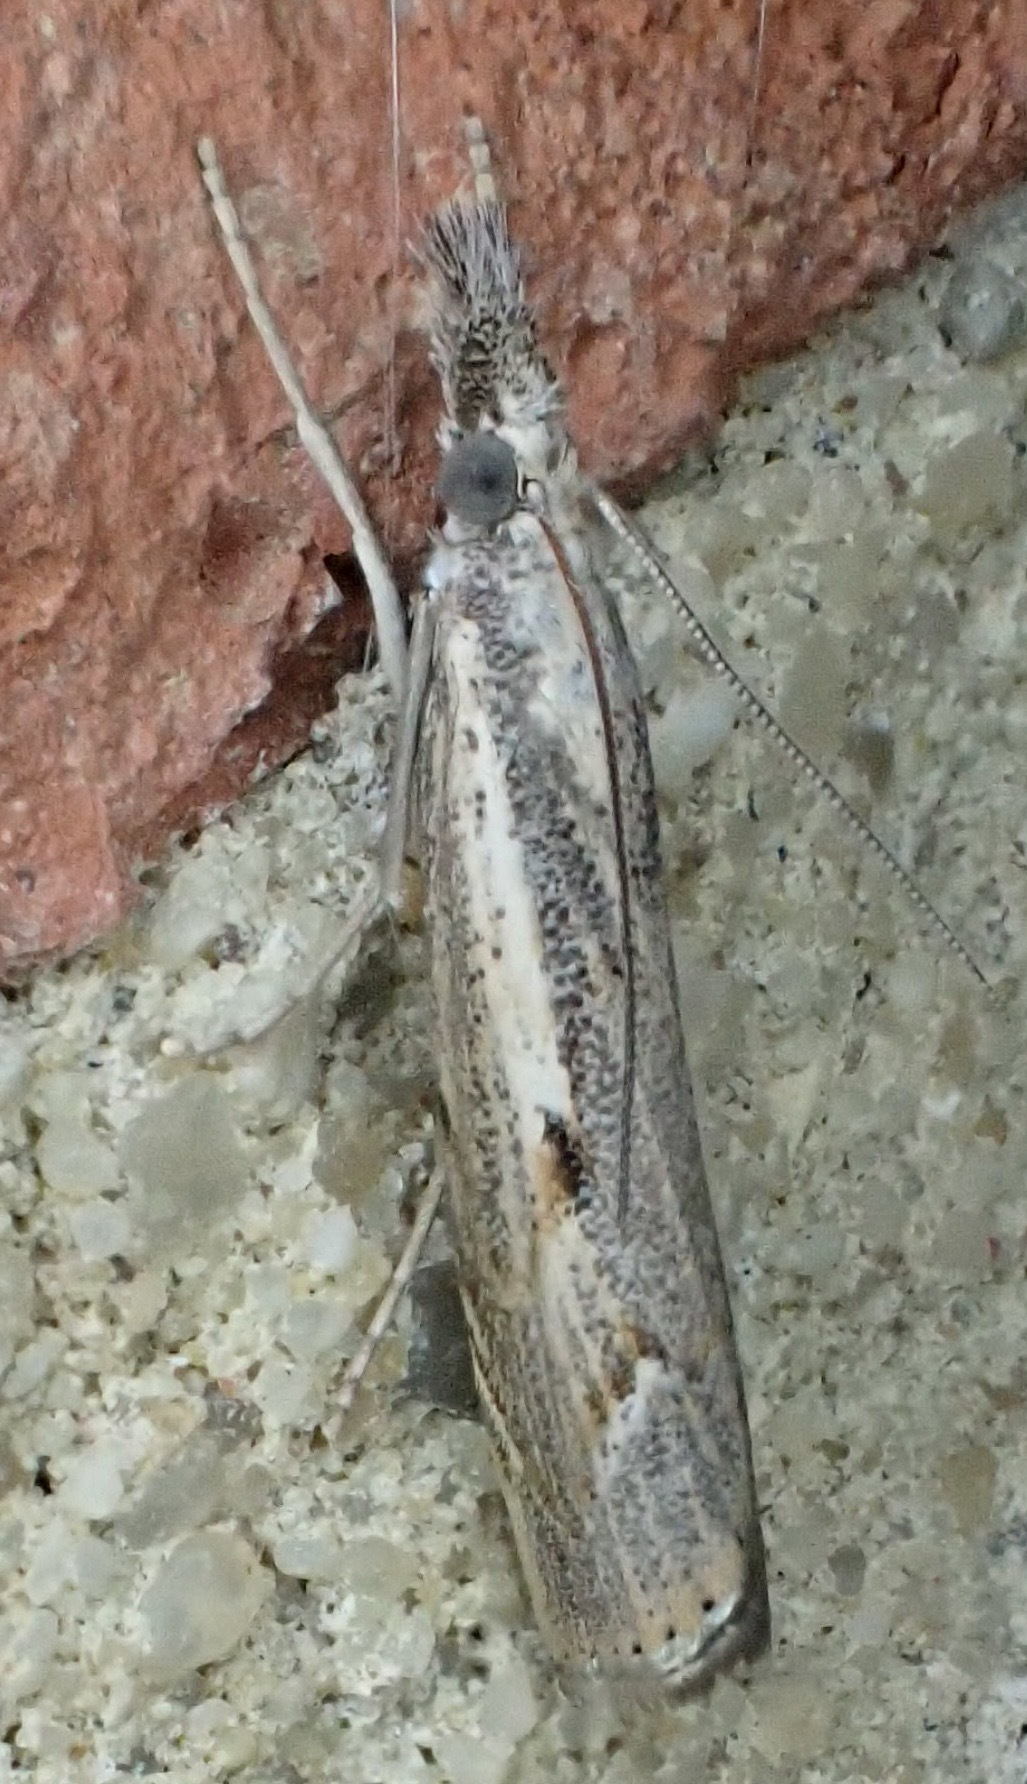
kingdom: Animalia
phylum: Arthropoda
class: Insecta
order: Lepidoptera
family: Crambidae
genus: Agriphila
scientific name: Agriphila geniculea
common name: Elbow-stripe grass-veneer
